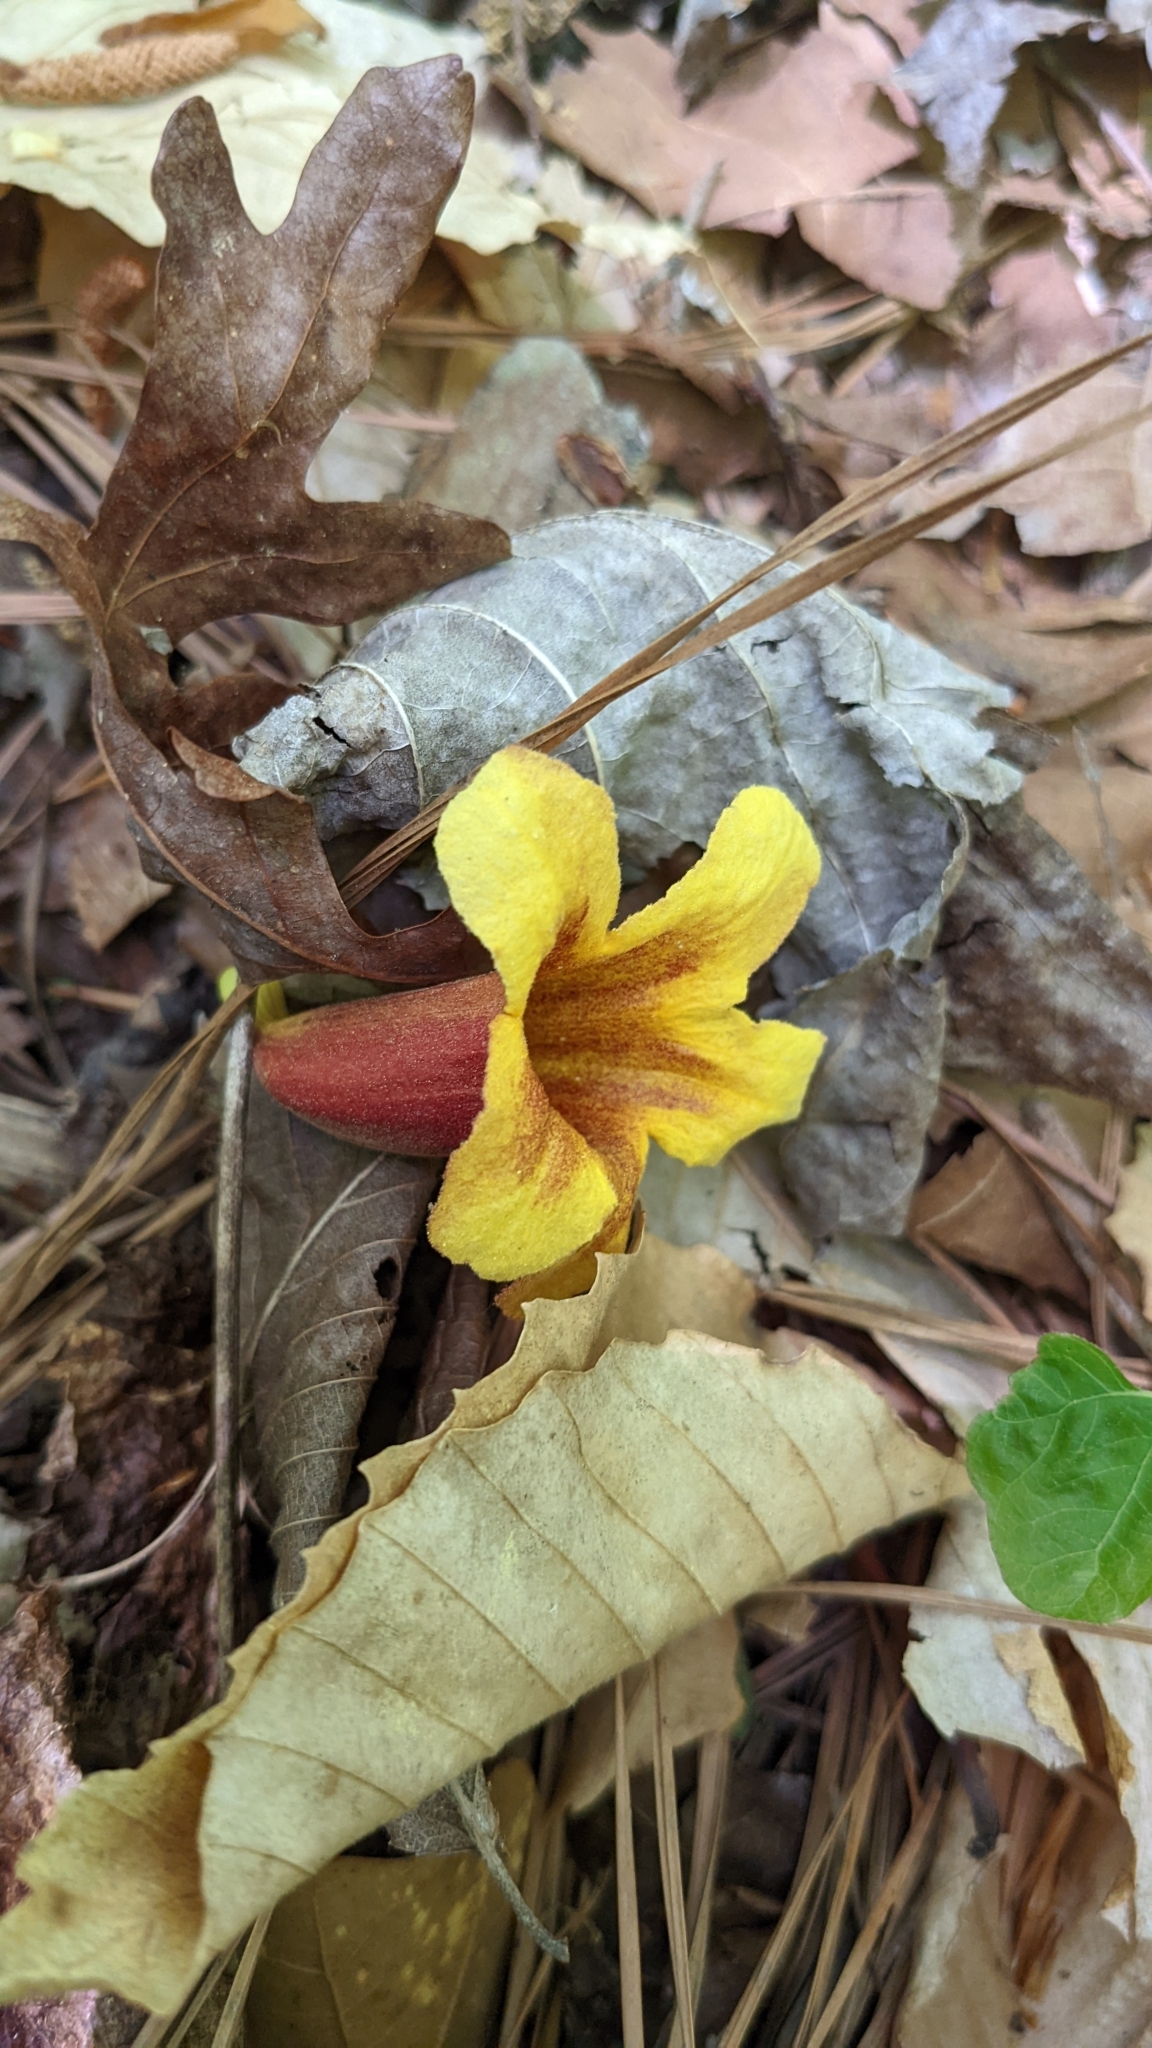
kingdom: Plantae
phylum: Tracheophyta
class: Magnoliopsida
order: Lamiales
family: Bignoniaceae
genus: Bignonia
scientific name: Bignonia capreolata
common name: Crossvine
